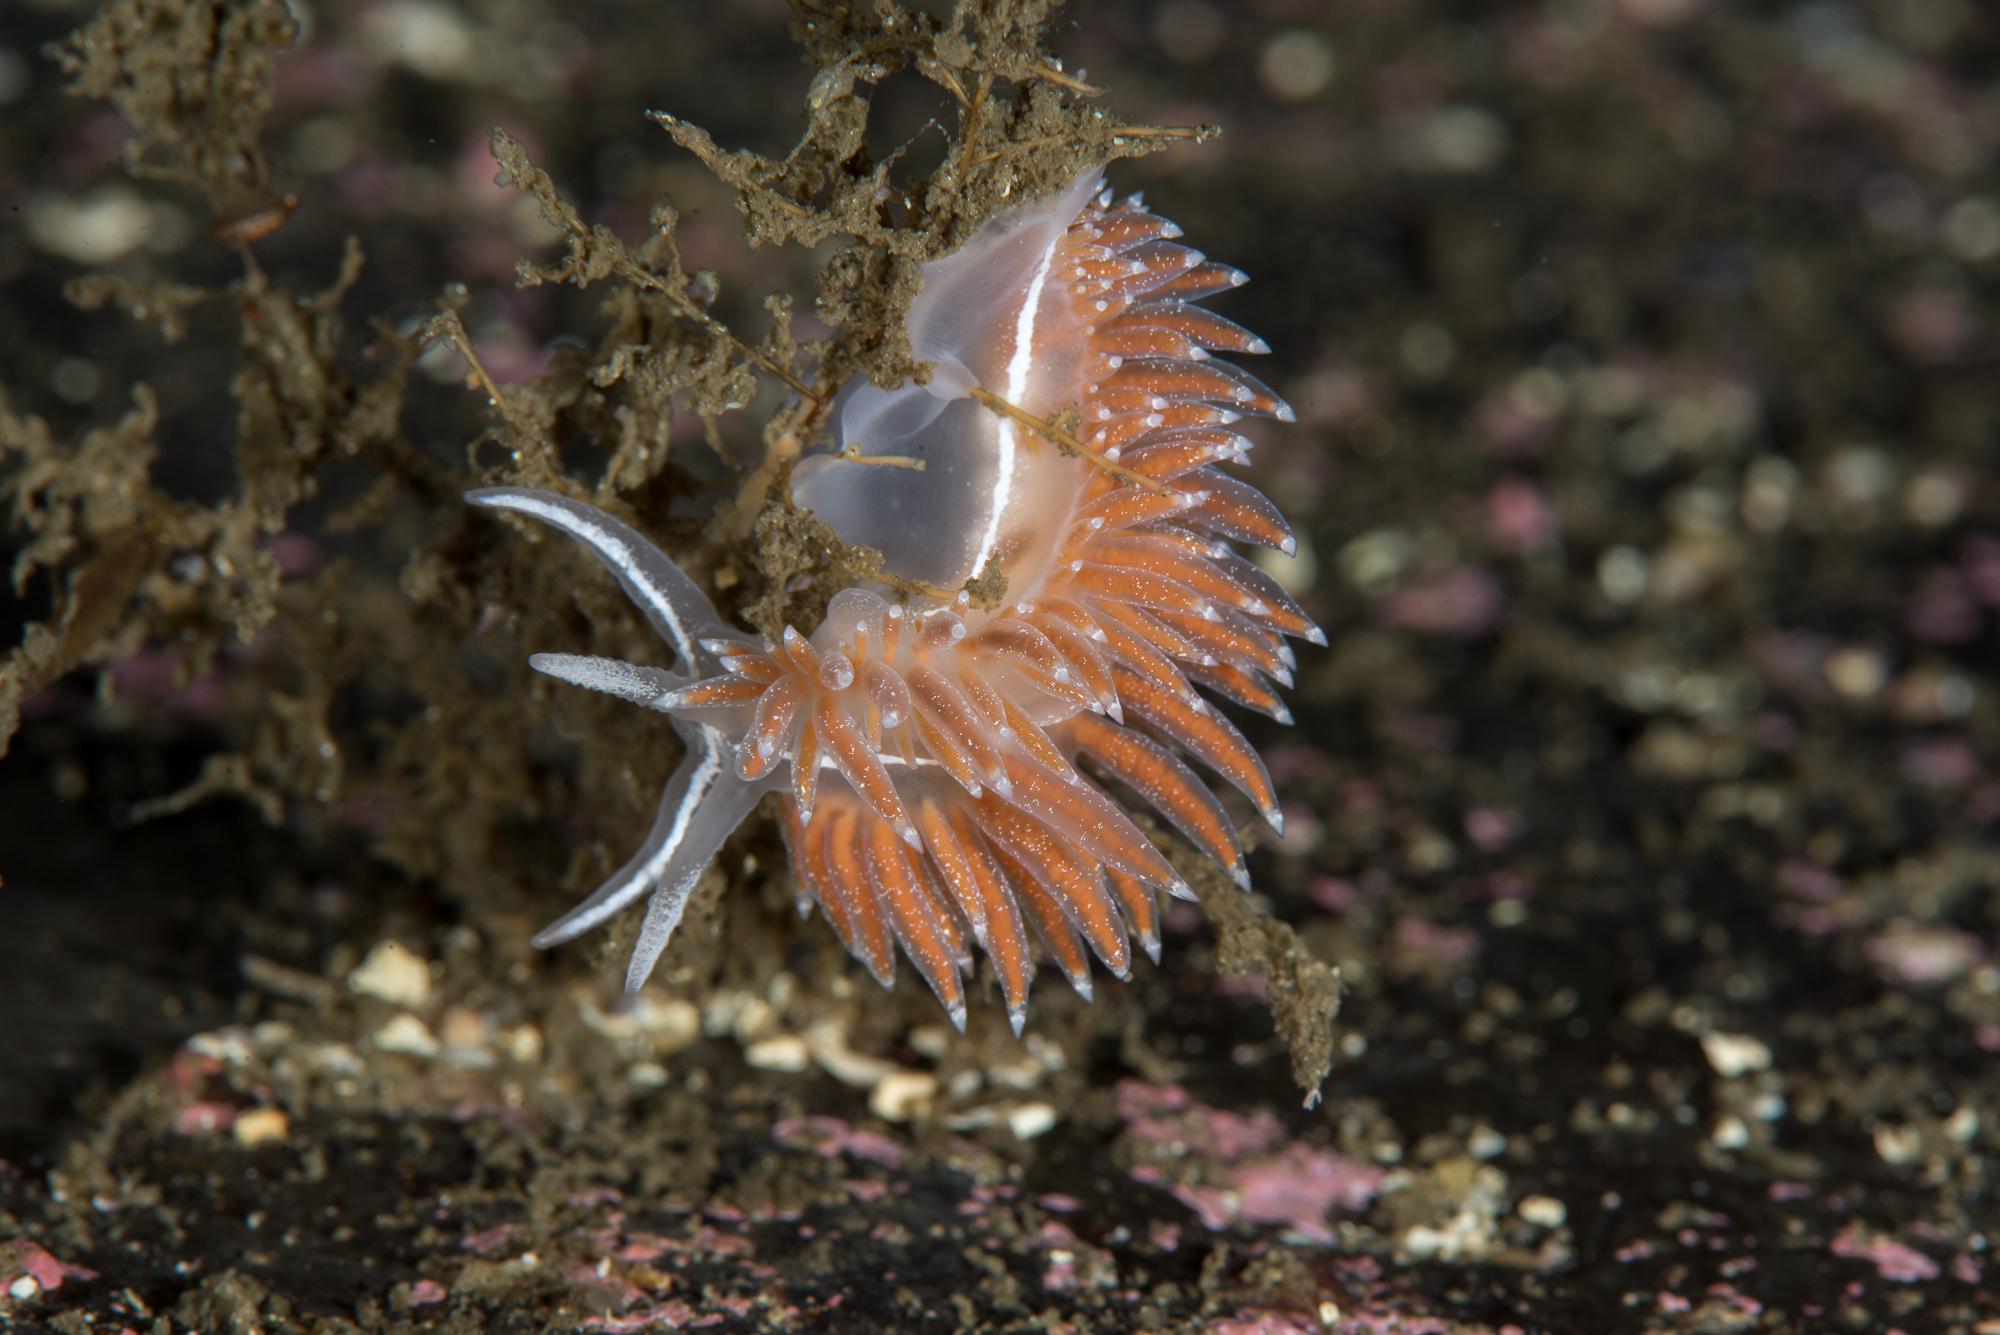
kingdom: Animalia
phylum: Mollusca
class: Gastropoda
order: Nudibranchia
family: Coryphellidae
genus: Coryphella
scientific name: Coryphella orjani
